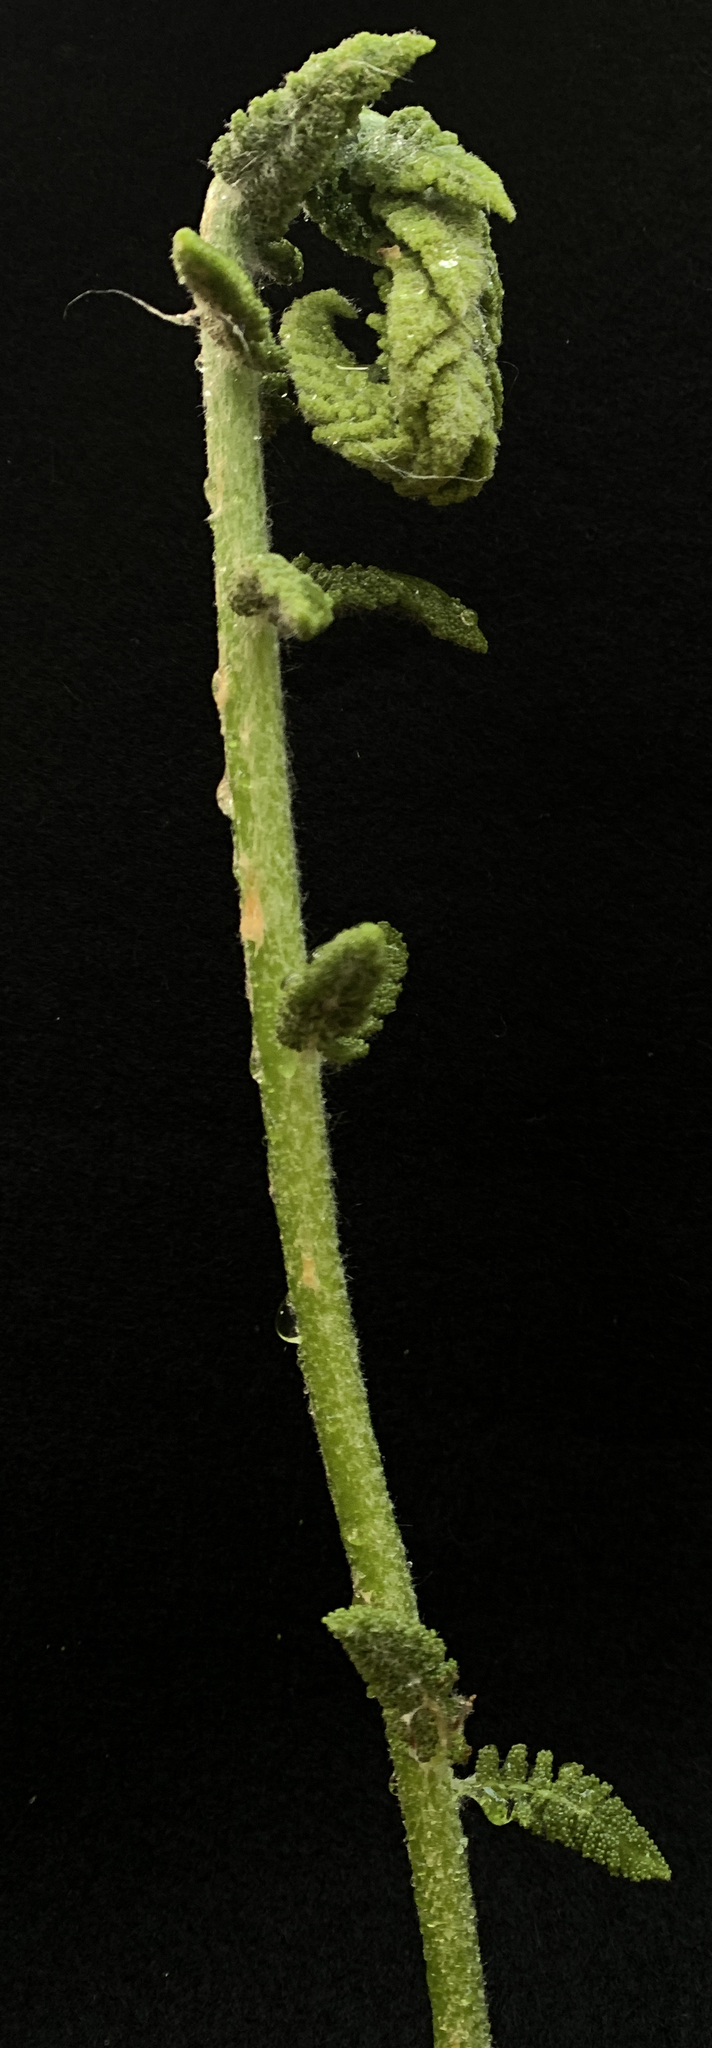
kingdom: Plantae
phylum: Tracheophyta
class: Polypodiopsida
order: Osmundales
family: Osmundaceae
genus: Osmundastrum
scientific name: Osmundastrum cinnamomeum
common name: Cinnamon fern
